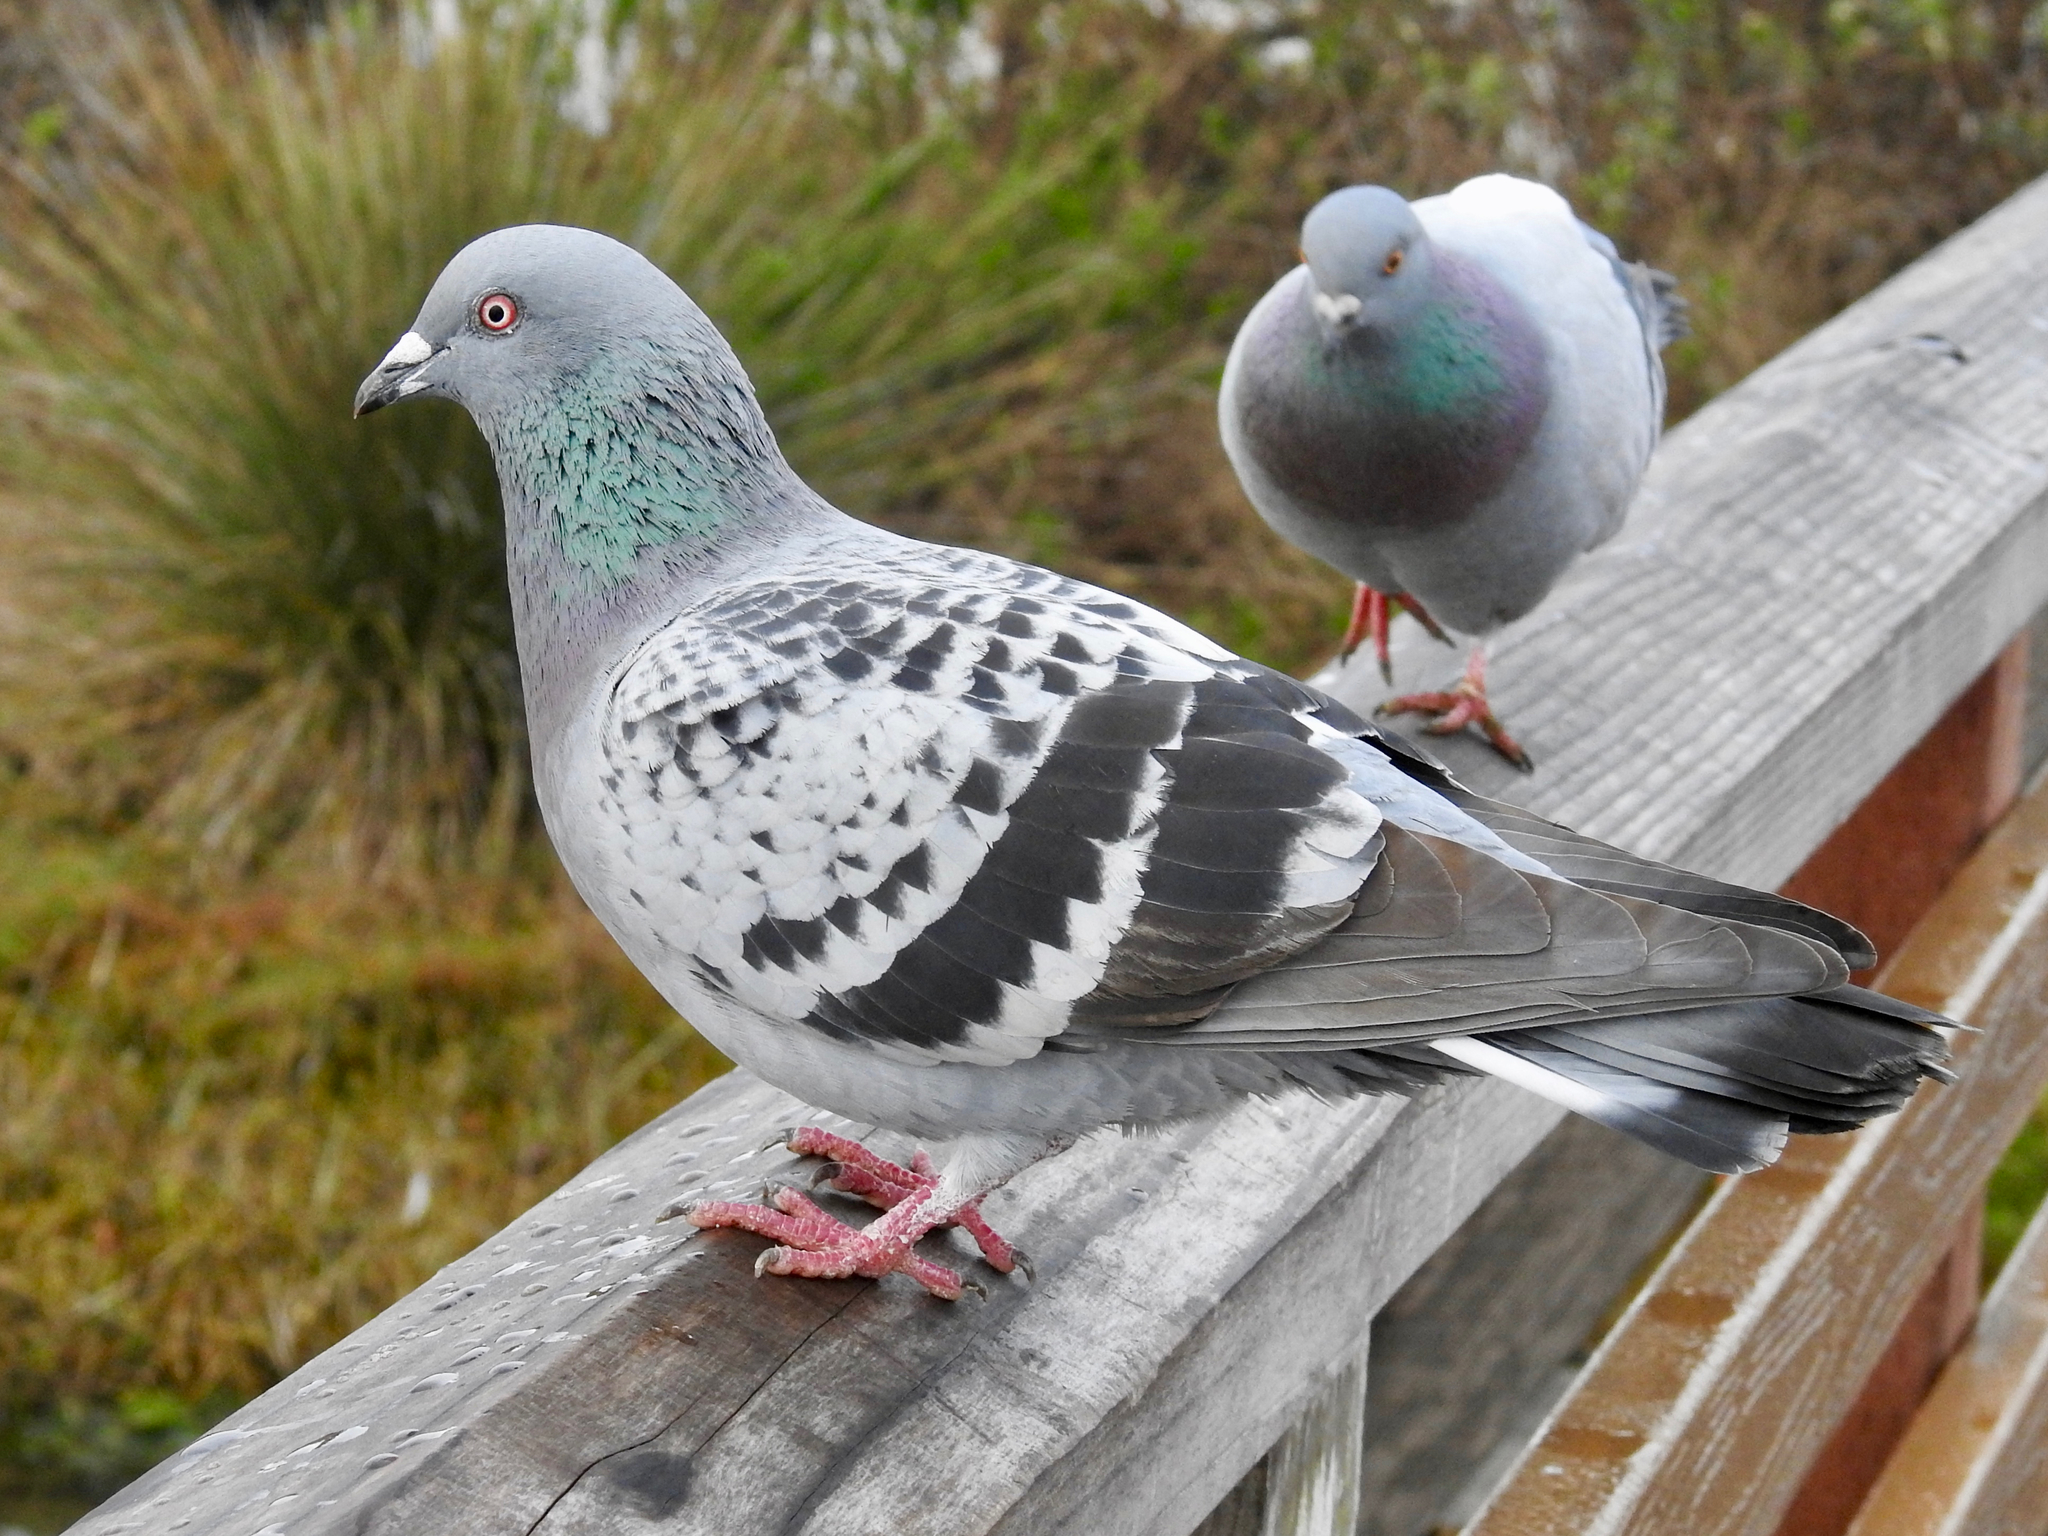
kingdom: Animalia
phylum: Chordata
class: Aves
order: Columbiformes
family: Columbidae
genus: Columba
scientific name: Columba livia
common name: Rock pigeon
